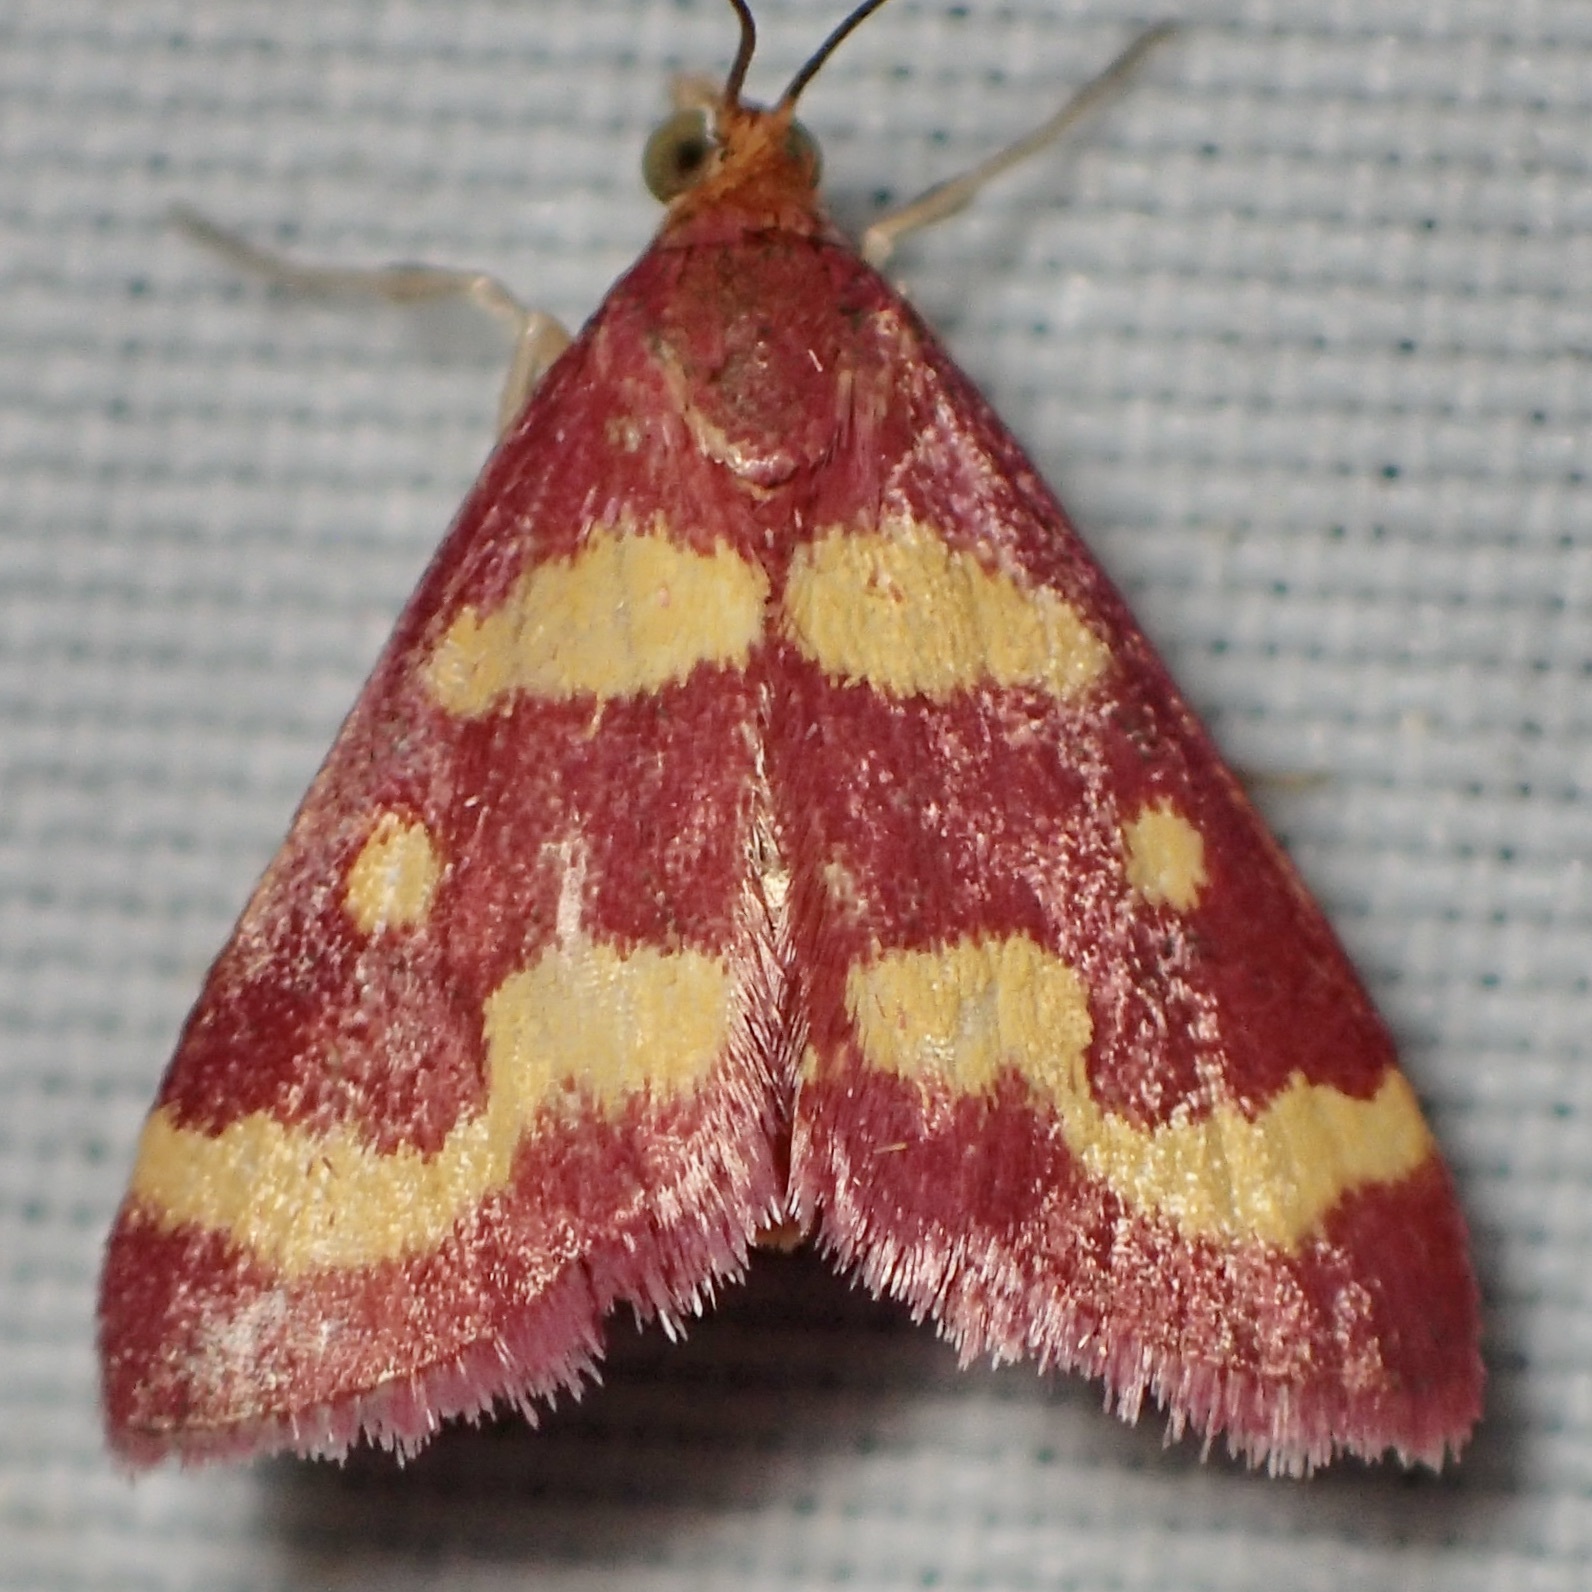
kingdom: Animalia
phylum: Arthropoda
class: Insecta
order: Lepidoptera
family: Crambidae
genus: Pyrausta
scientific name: Pyrausta tyralis
